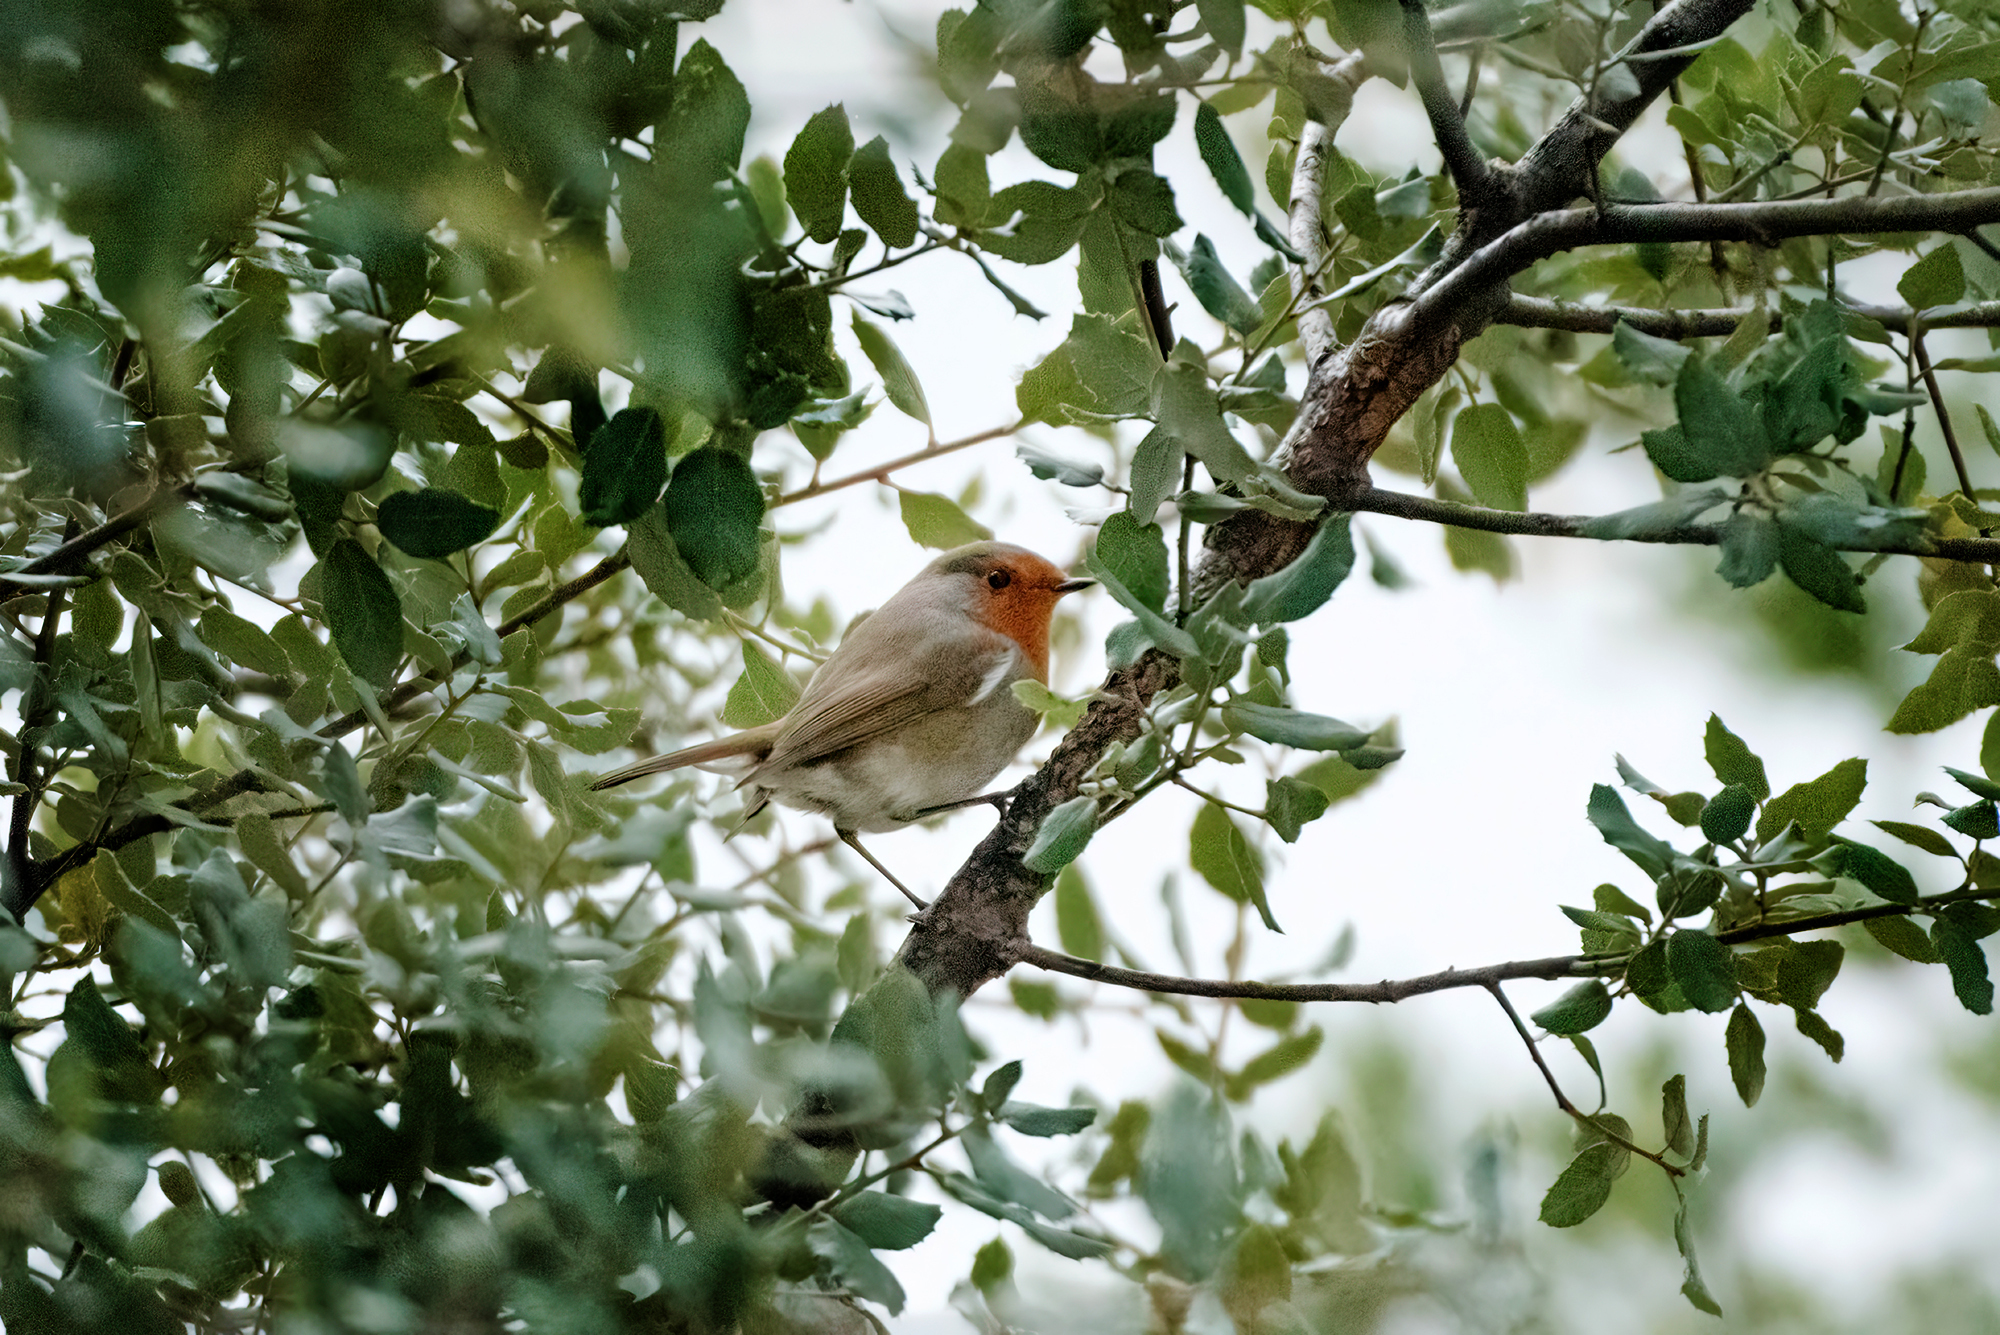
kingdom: Animalia
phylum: Chordata
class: Aves
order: Passeriformes
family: Muscicapidae
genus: Erithacus
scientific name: Erithacus rubecula
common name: European robin
